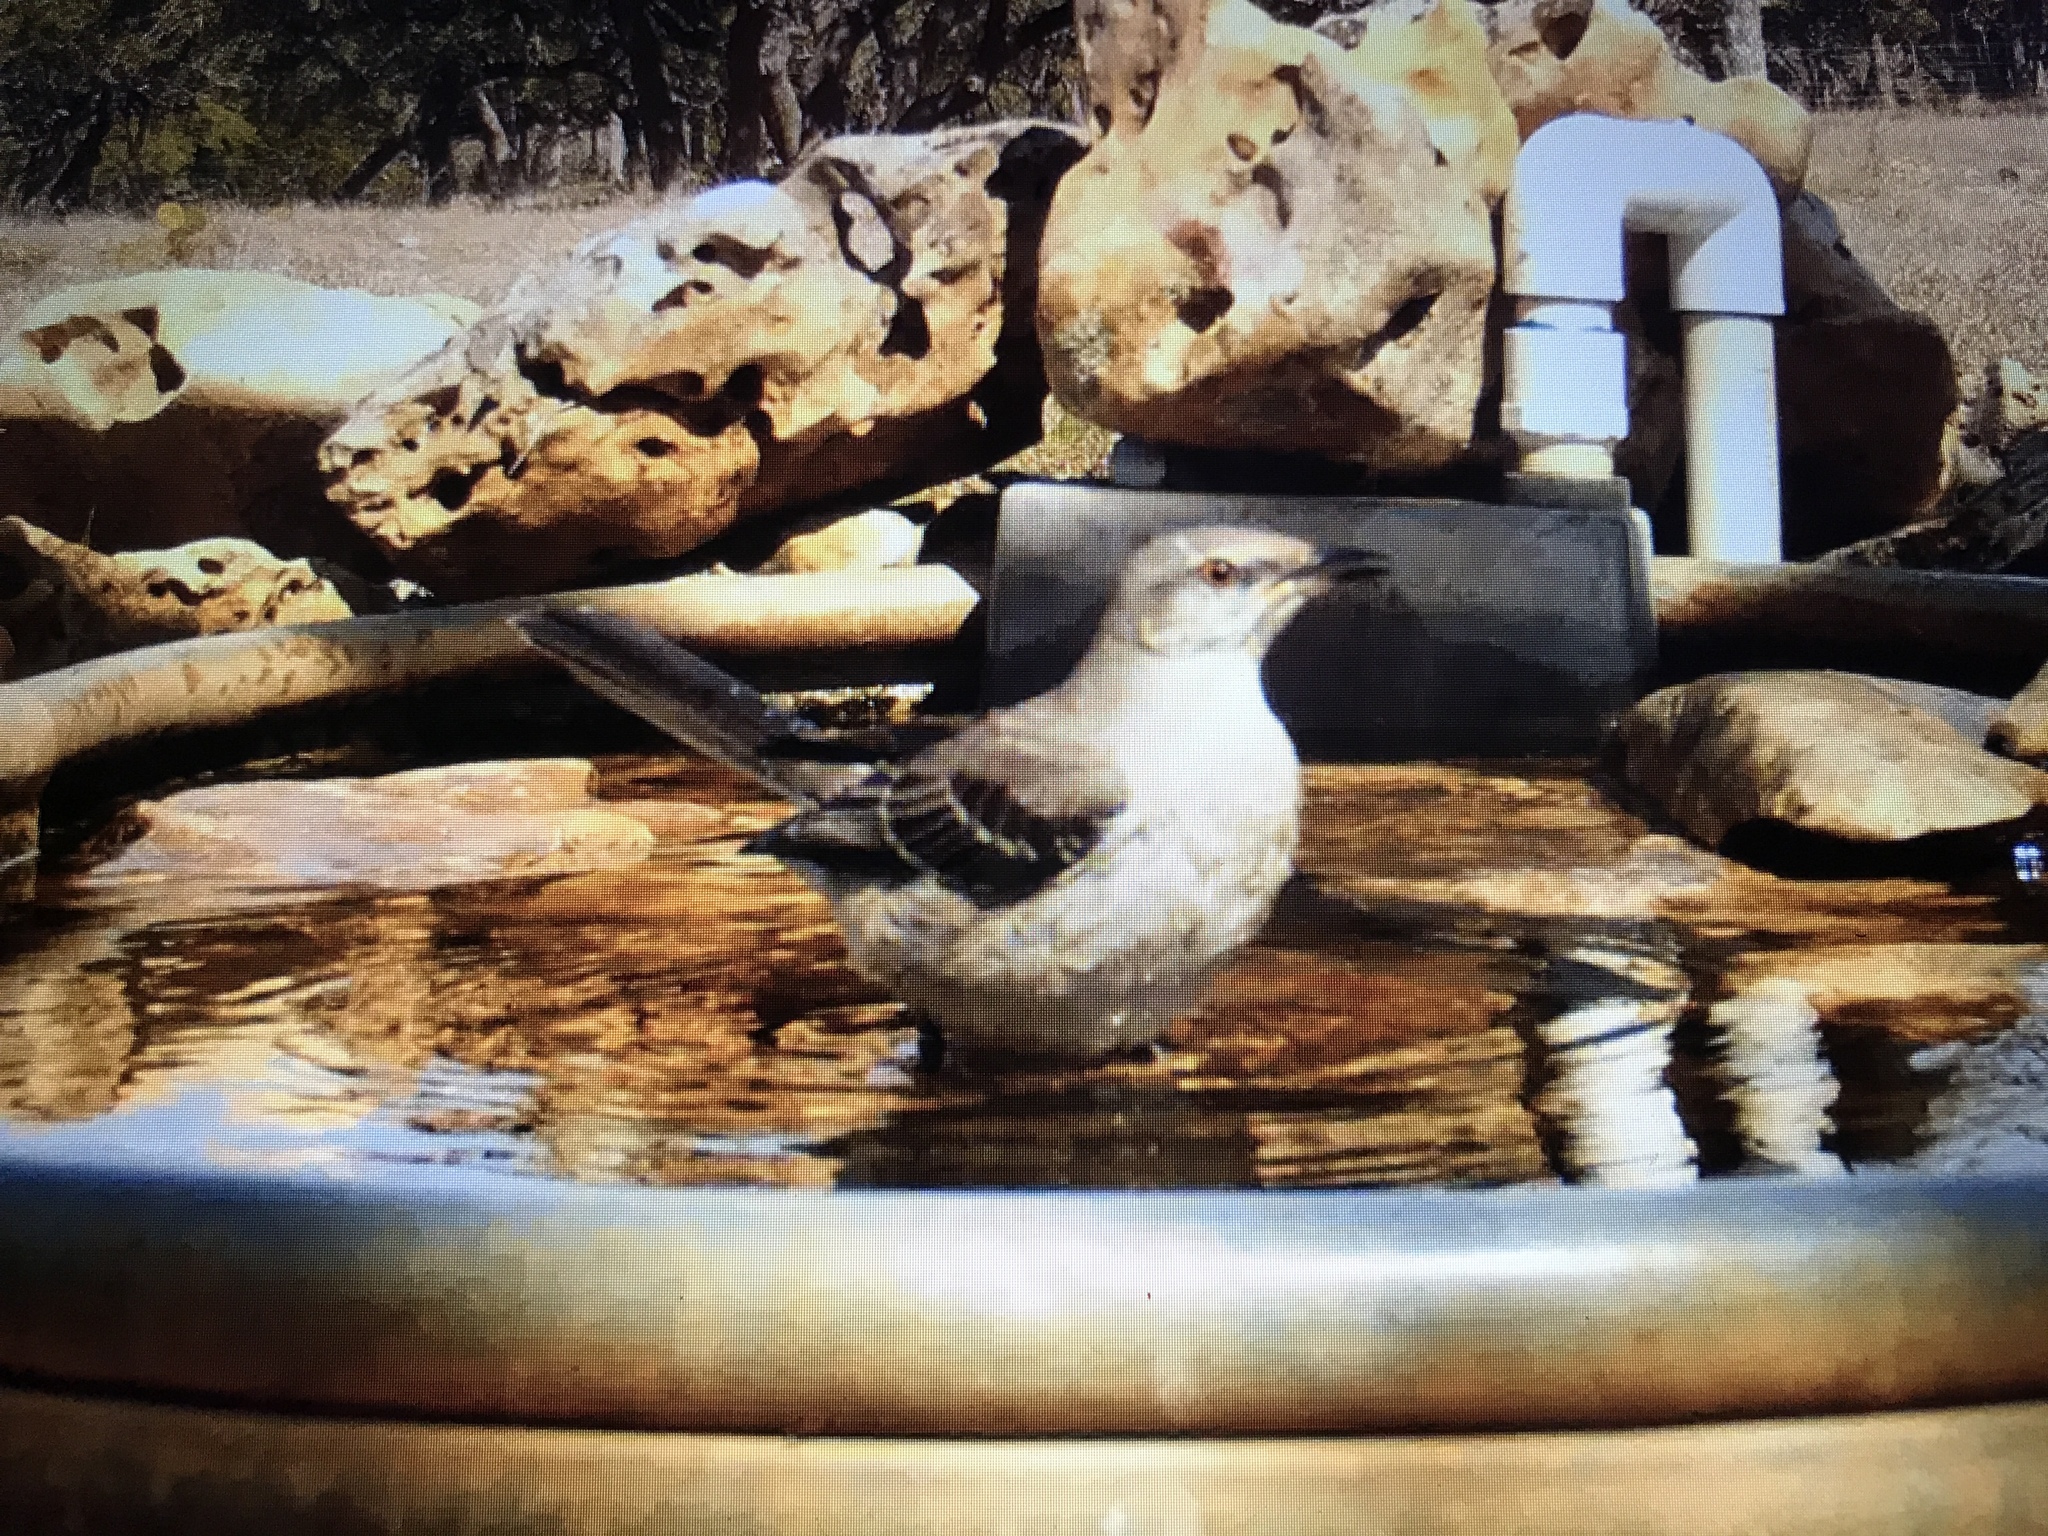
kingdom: Animalia
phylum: Chordata
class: Aves
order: Passeriformes
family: Mimidae
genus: Mimus
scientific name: Mimus polyglottos
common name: Northern mockingbird
